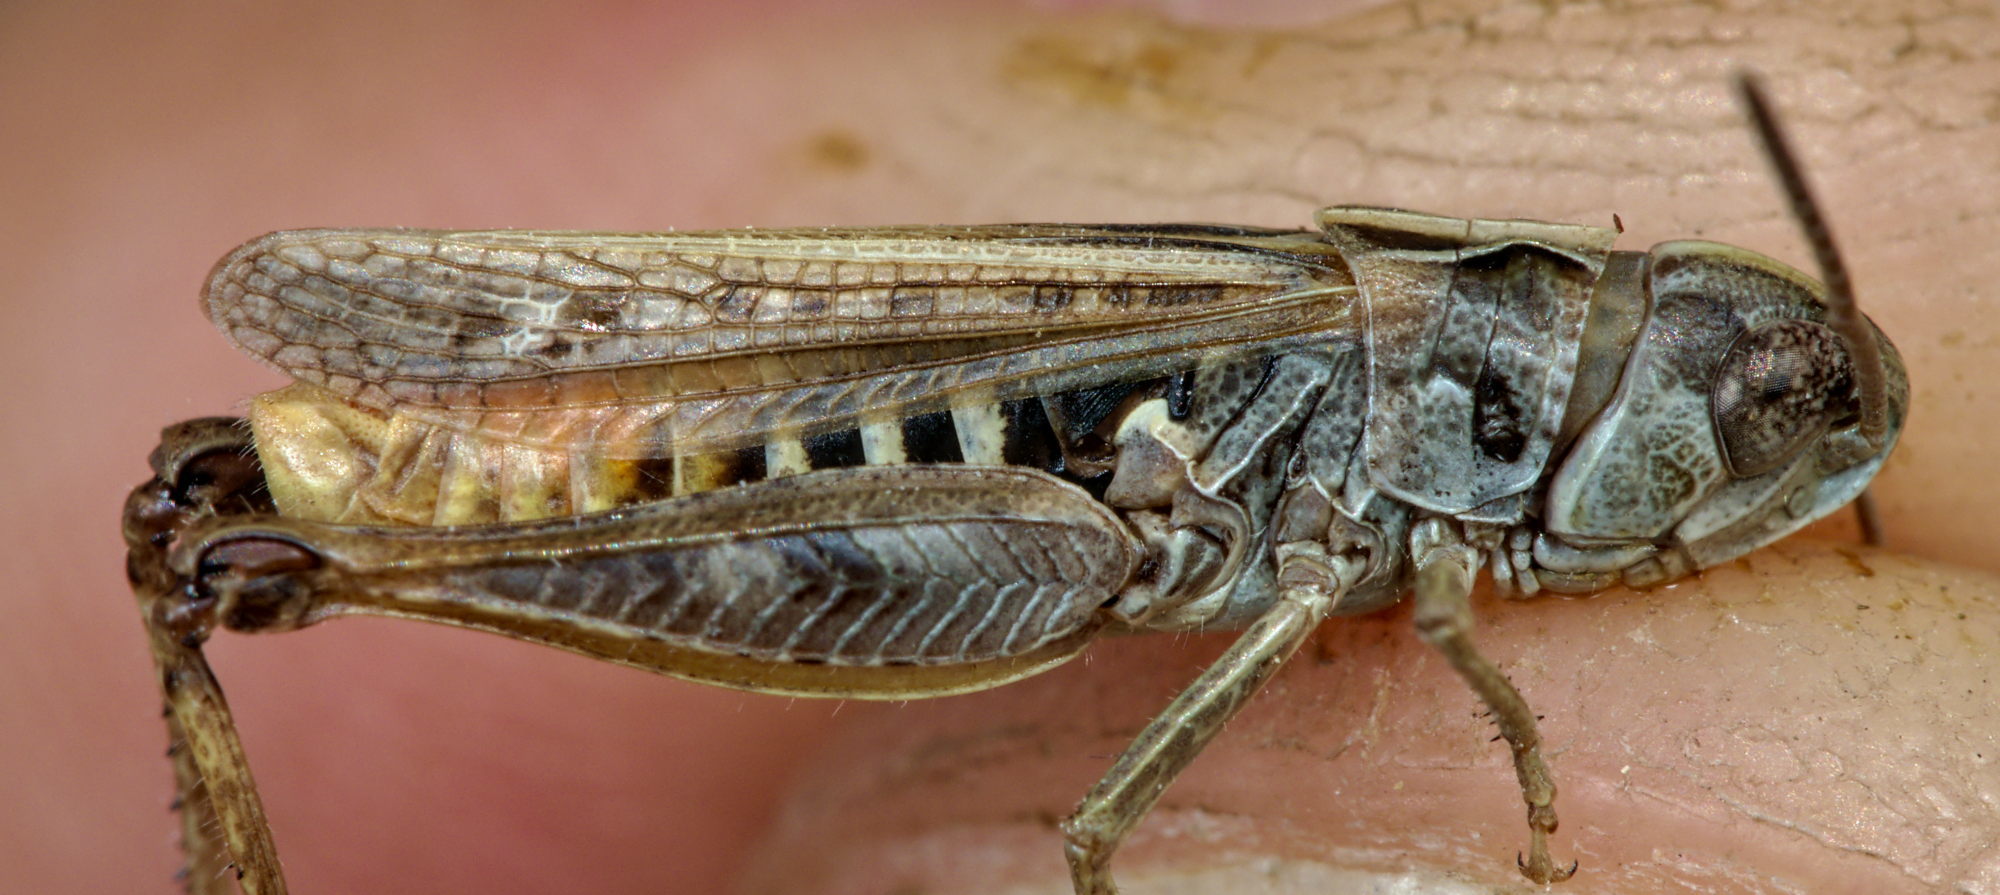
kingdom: Animalia
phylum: Arthropoda
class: Insecta
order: Orthoptera
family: Acrididae
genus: Omocestus
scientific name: Omocestus haemorrhoidalis
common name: Orange-tipped grasshopper
